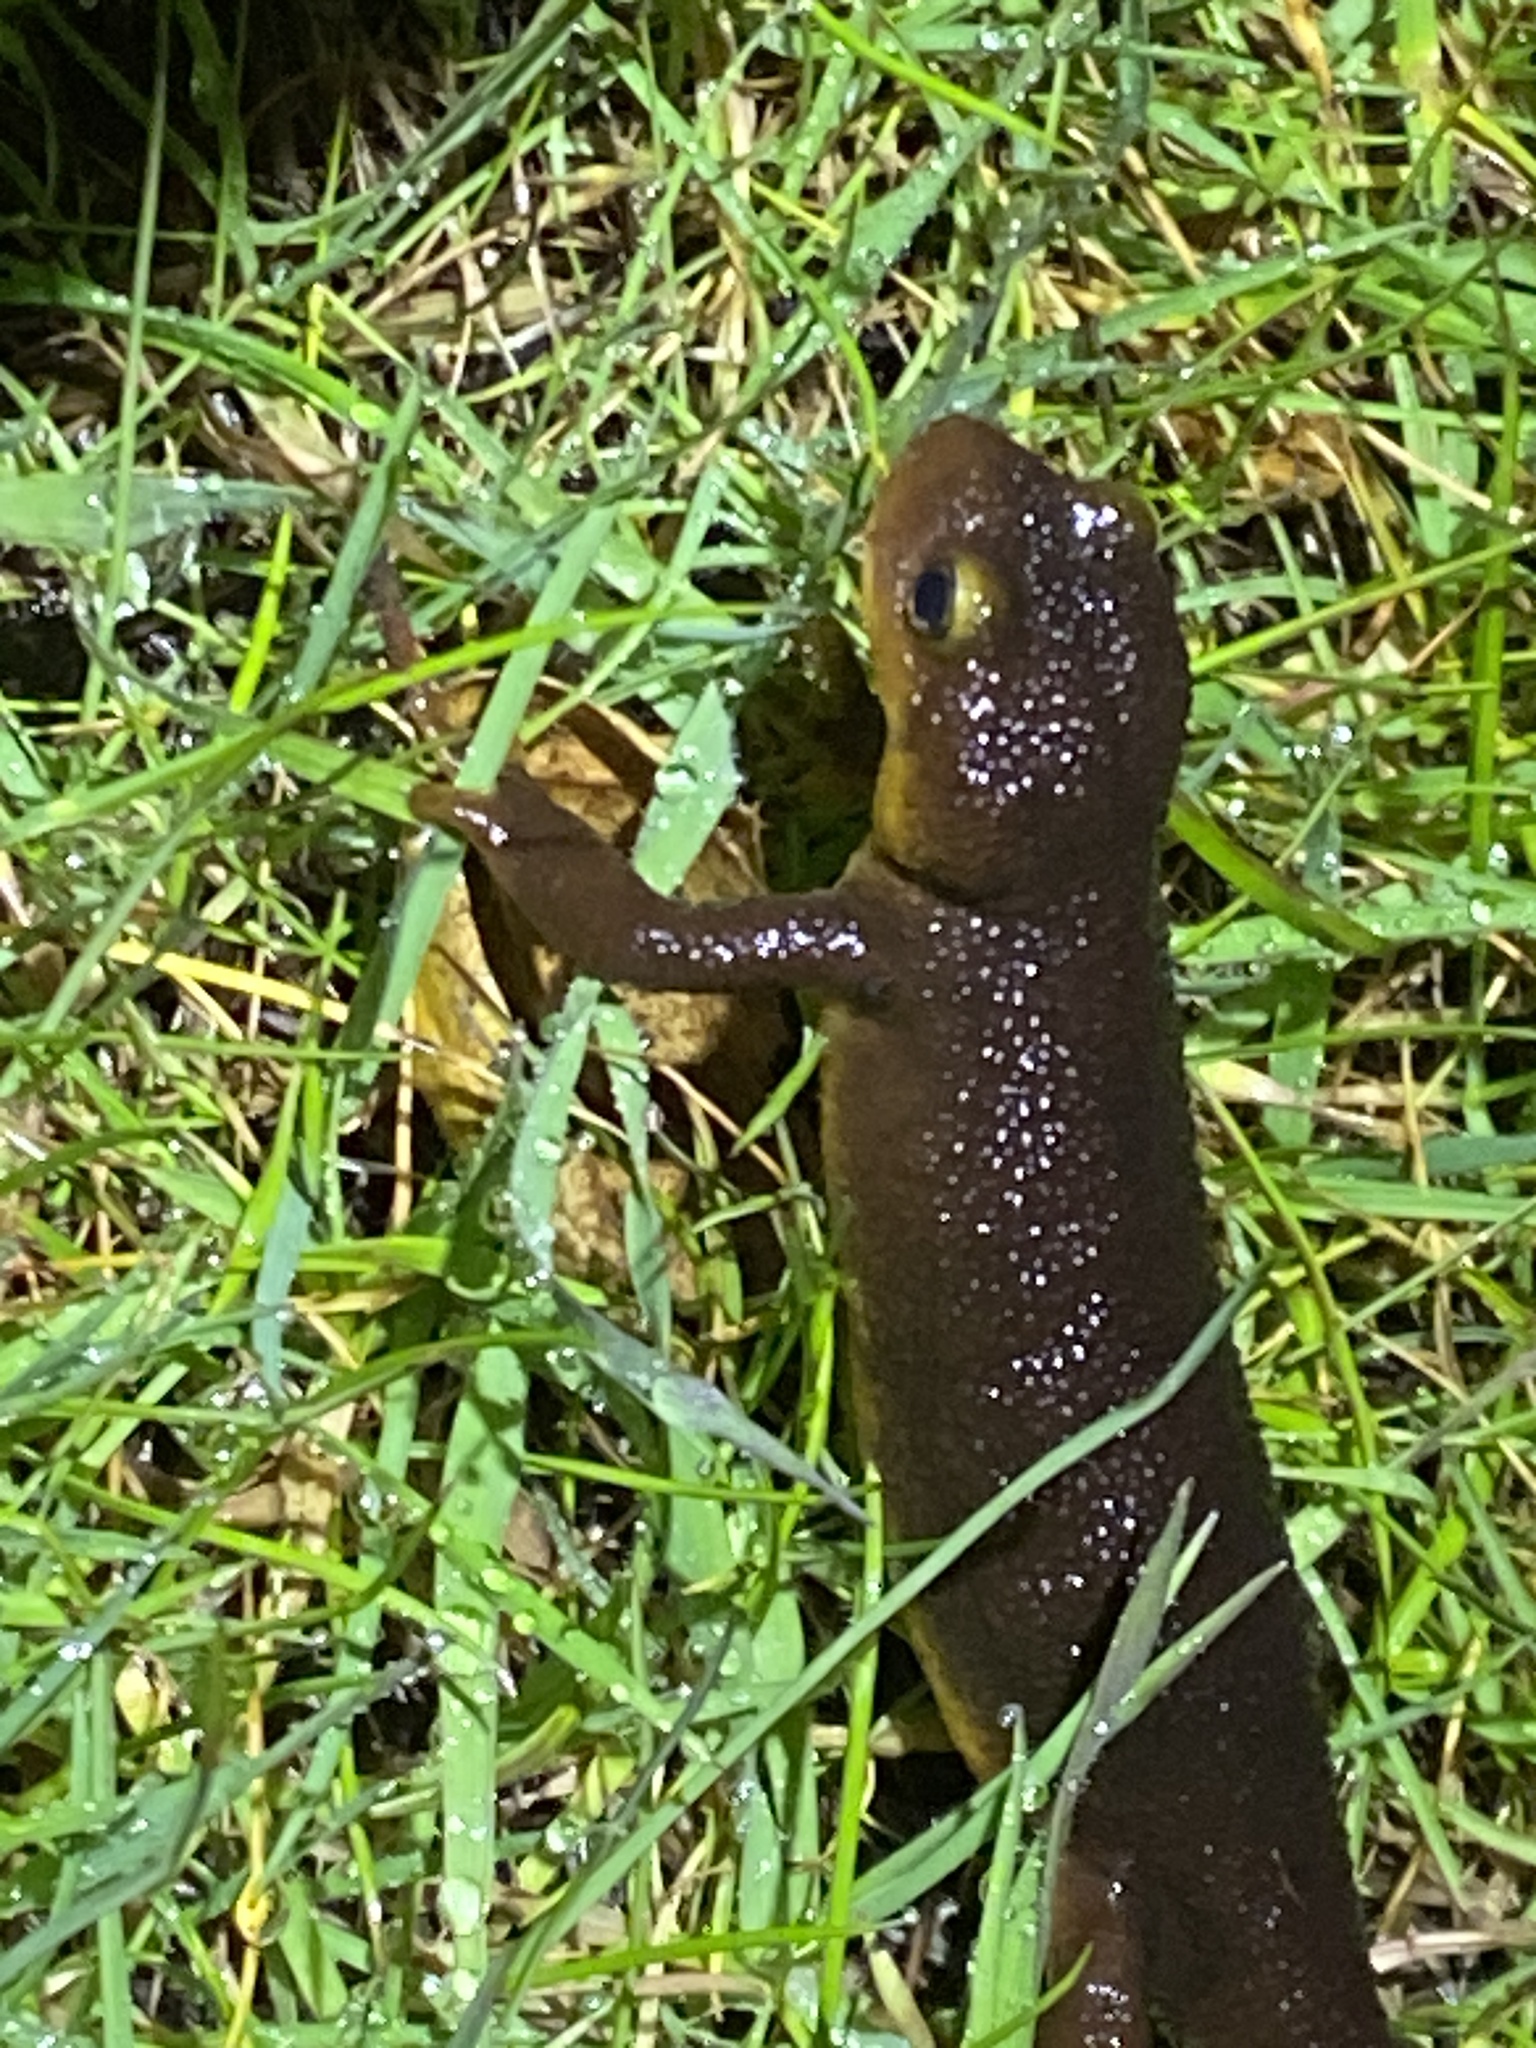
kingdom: Animalia
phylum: Chordata
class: Amphibia
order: Caudata
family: Salamandridae
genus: Taricha
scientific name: Taricha torosa
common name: California newt
